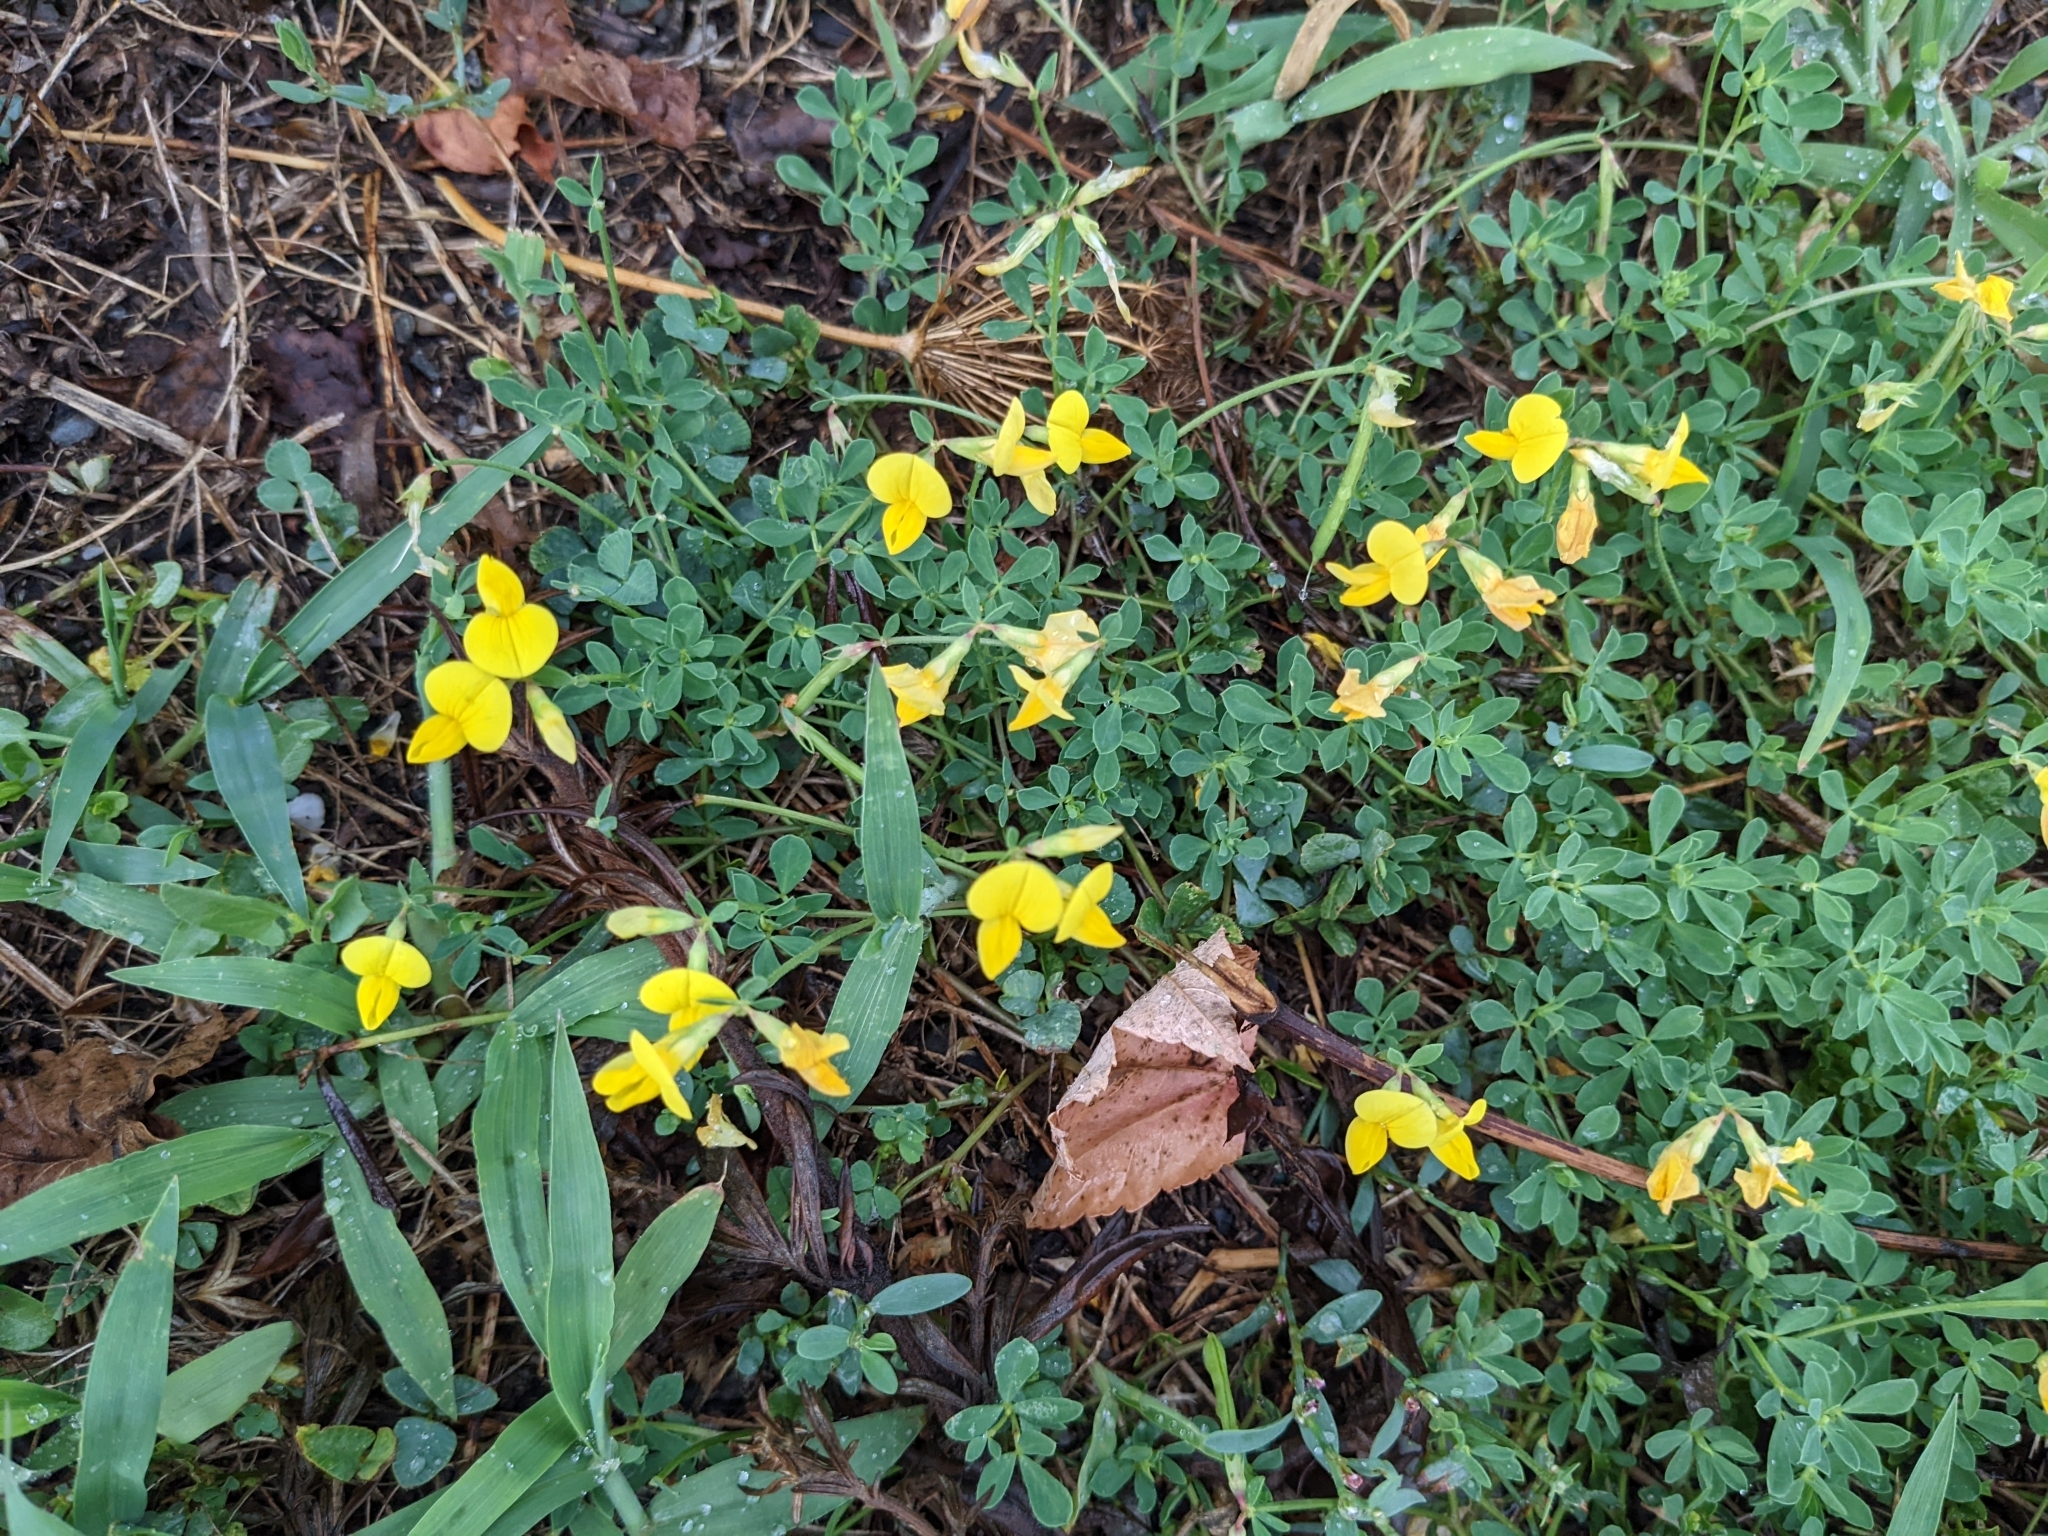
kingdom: Plantae
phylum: Tracheophyta
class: Magnoliopsida
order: Fabales
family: Fabaceae
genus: Lotus
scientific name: Lotus corniculatus
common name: Common bird's-foot-trefoil
